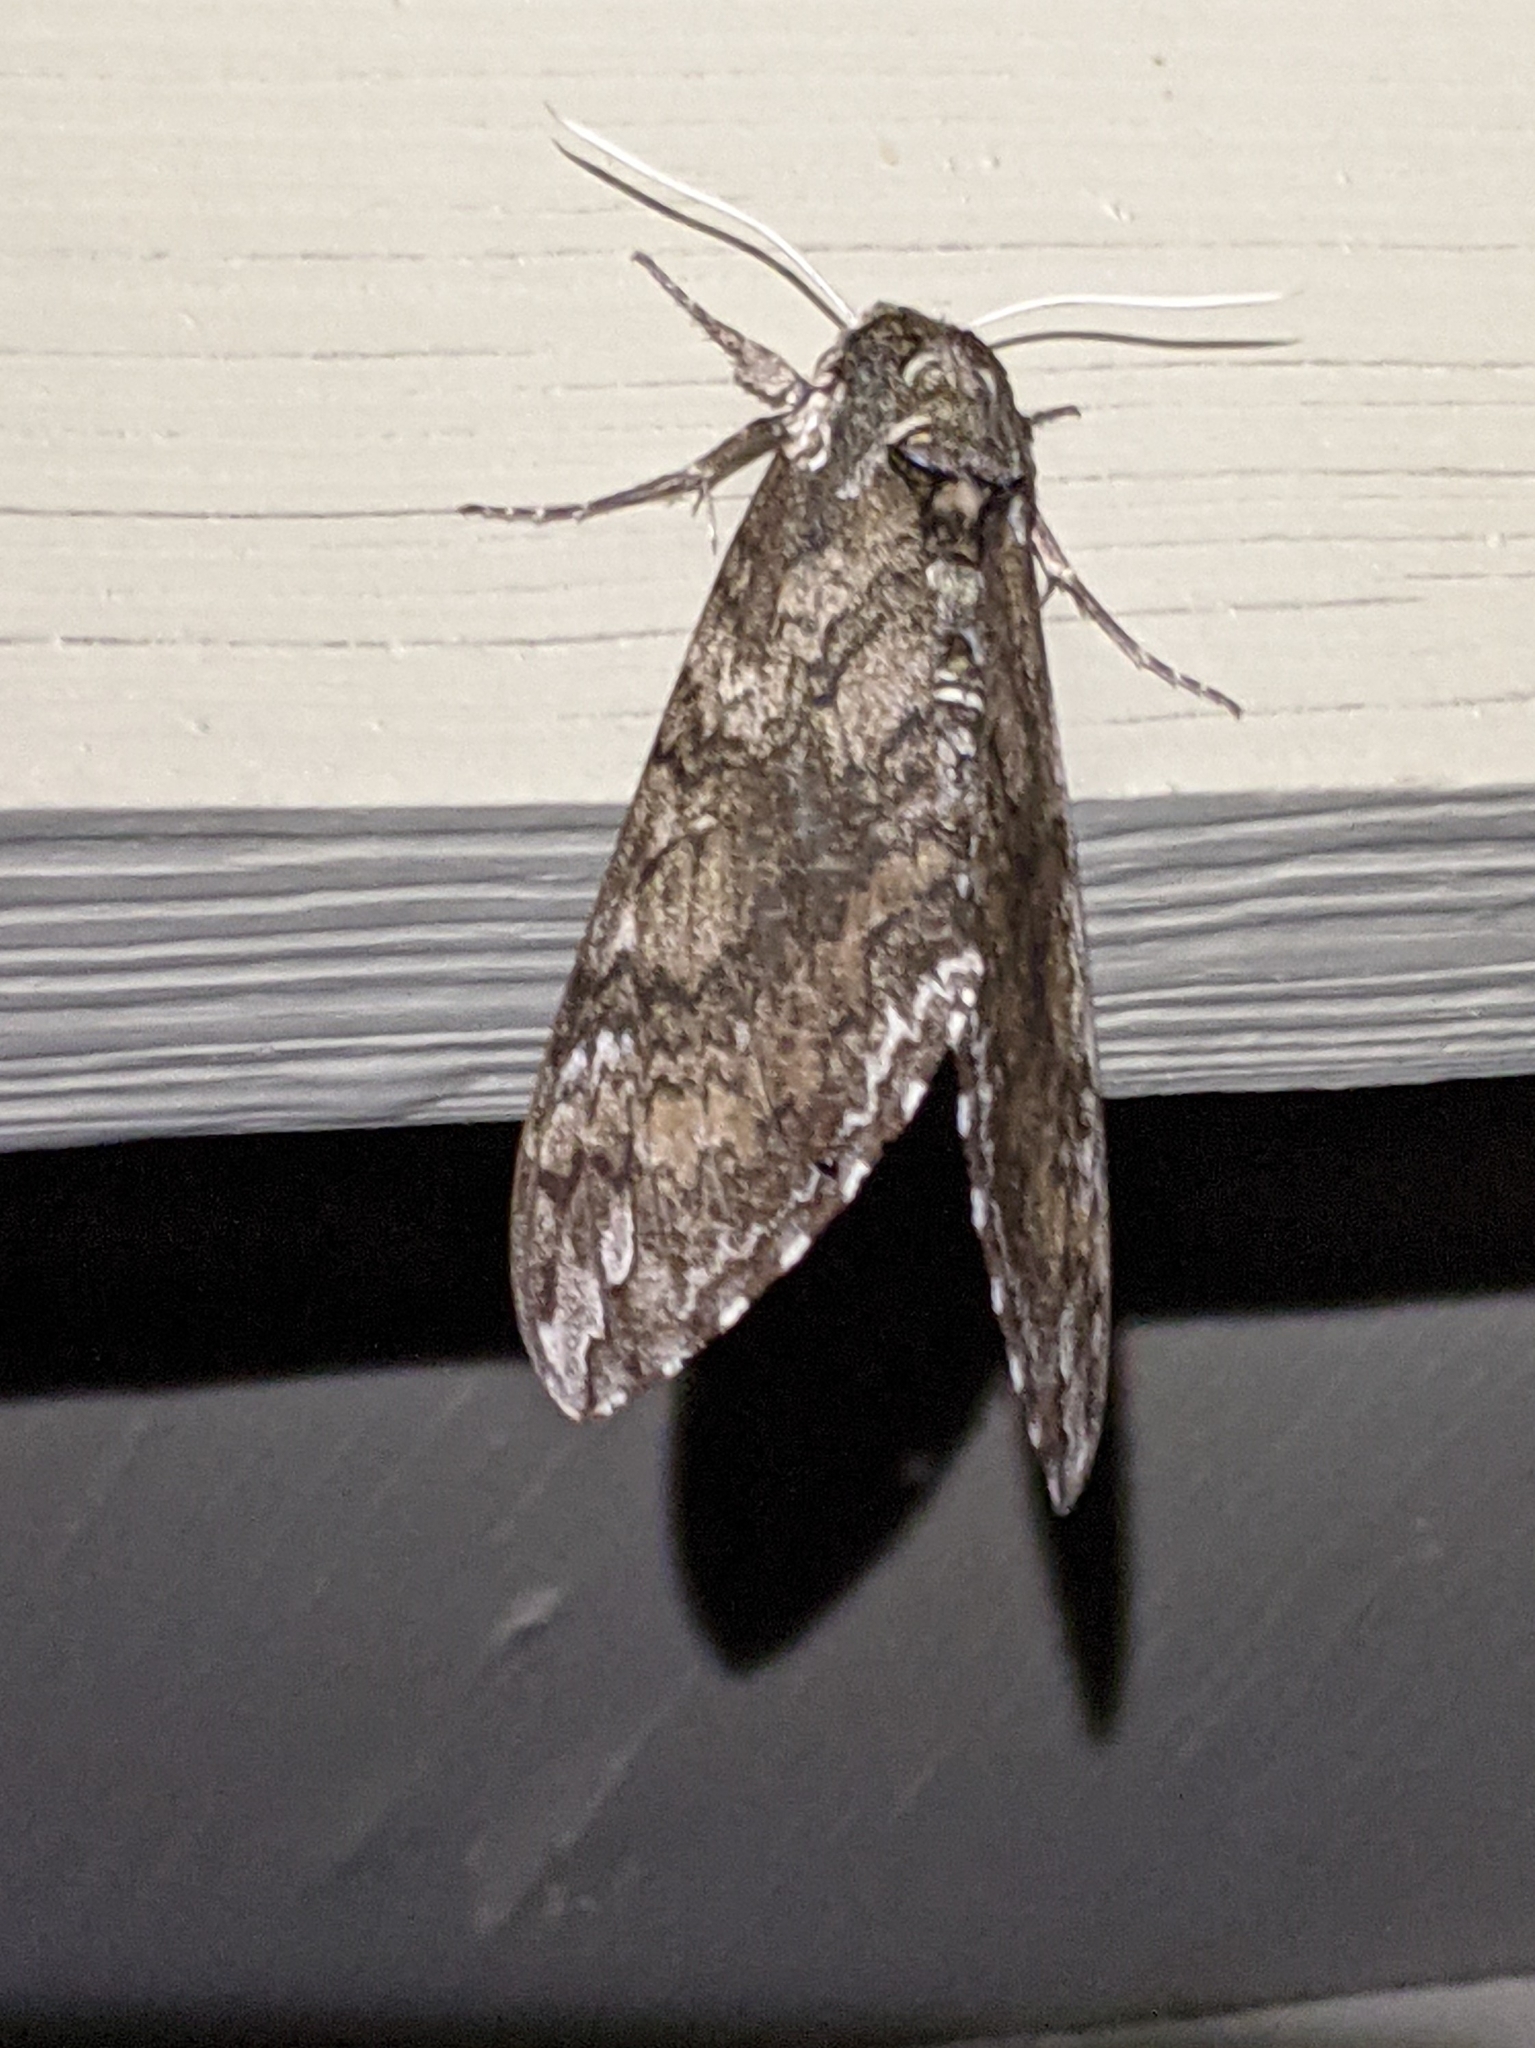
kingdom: Animalia
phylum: Arthropoda
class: Insecta
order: Lepidoptera
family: Sphingidae
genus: Manduca
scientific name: Manduca sexta
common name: Carolina sphinx
